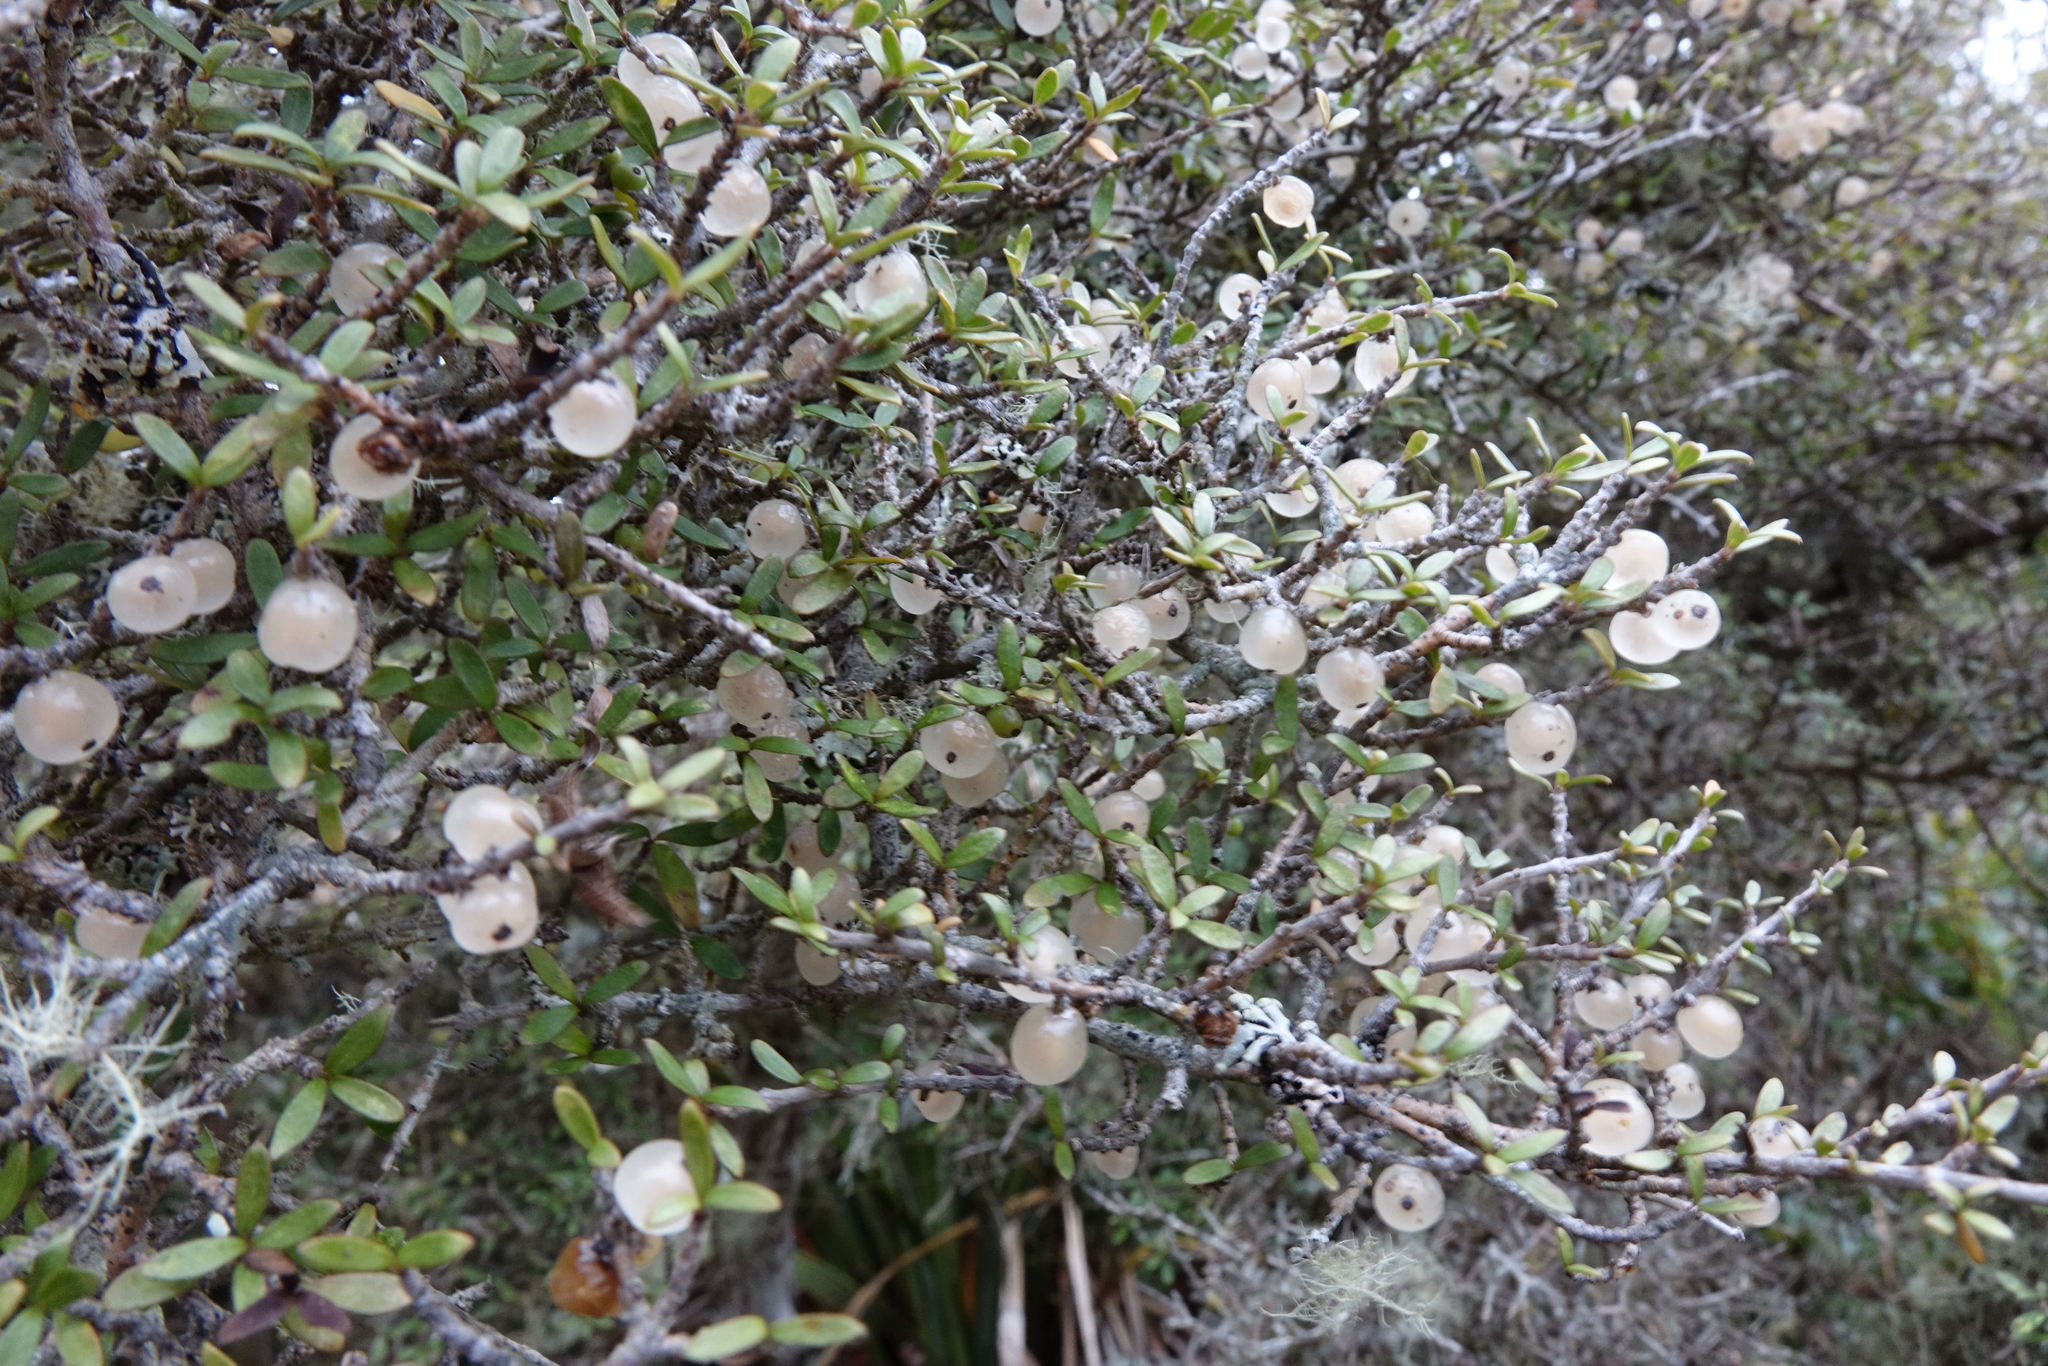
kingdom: Plantae
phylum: Tracheophyta
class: Magnoliopsida
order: Gentianales
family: Rubiaceae
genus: Coprosma
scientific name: Coprosma dumosa
